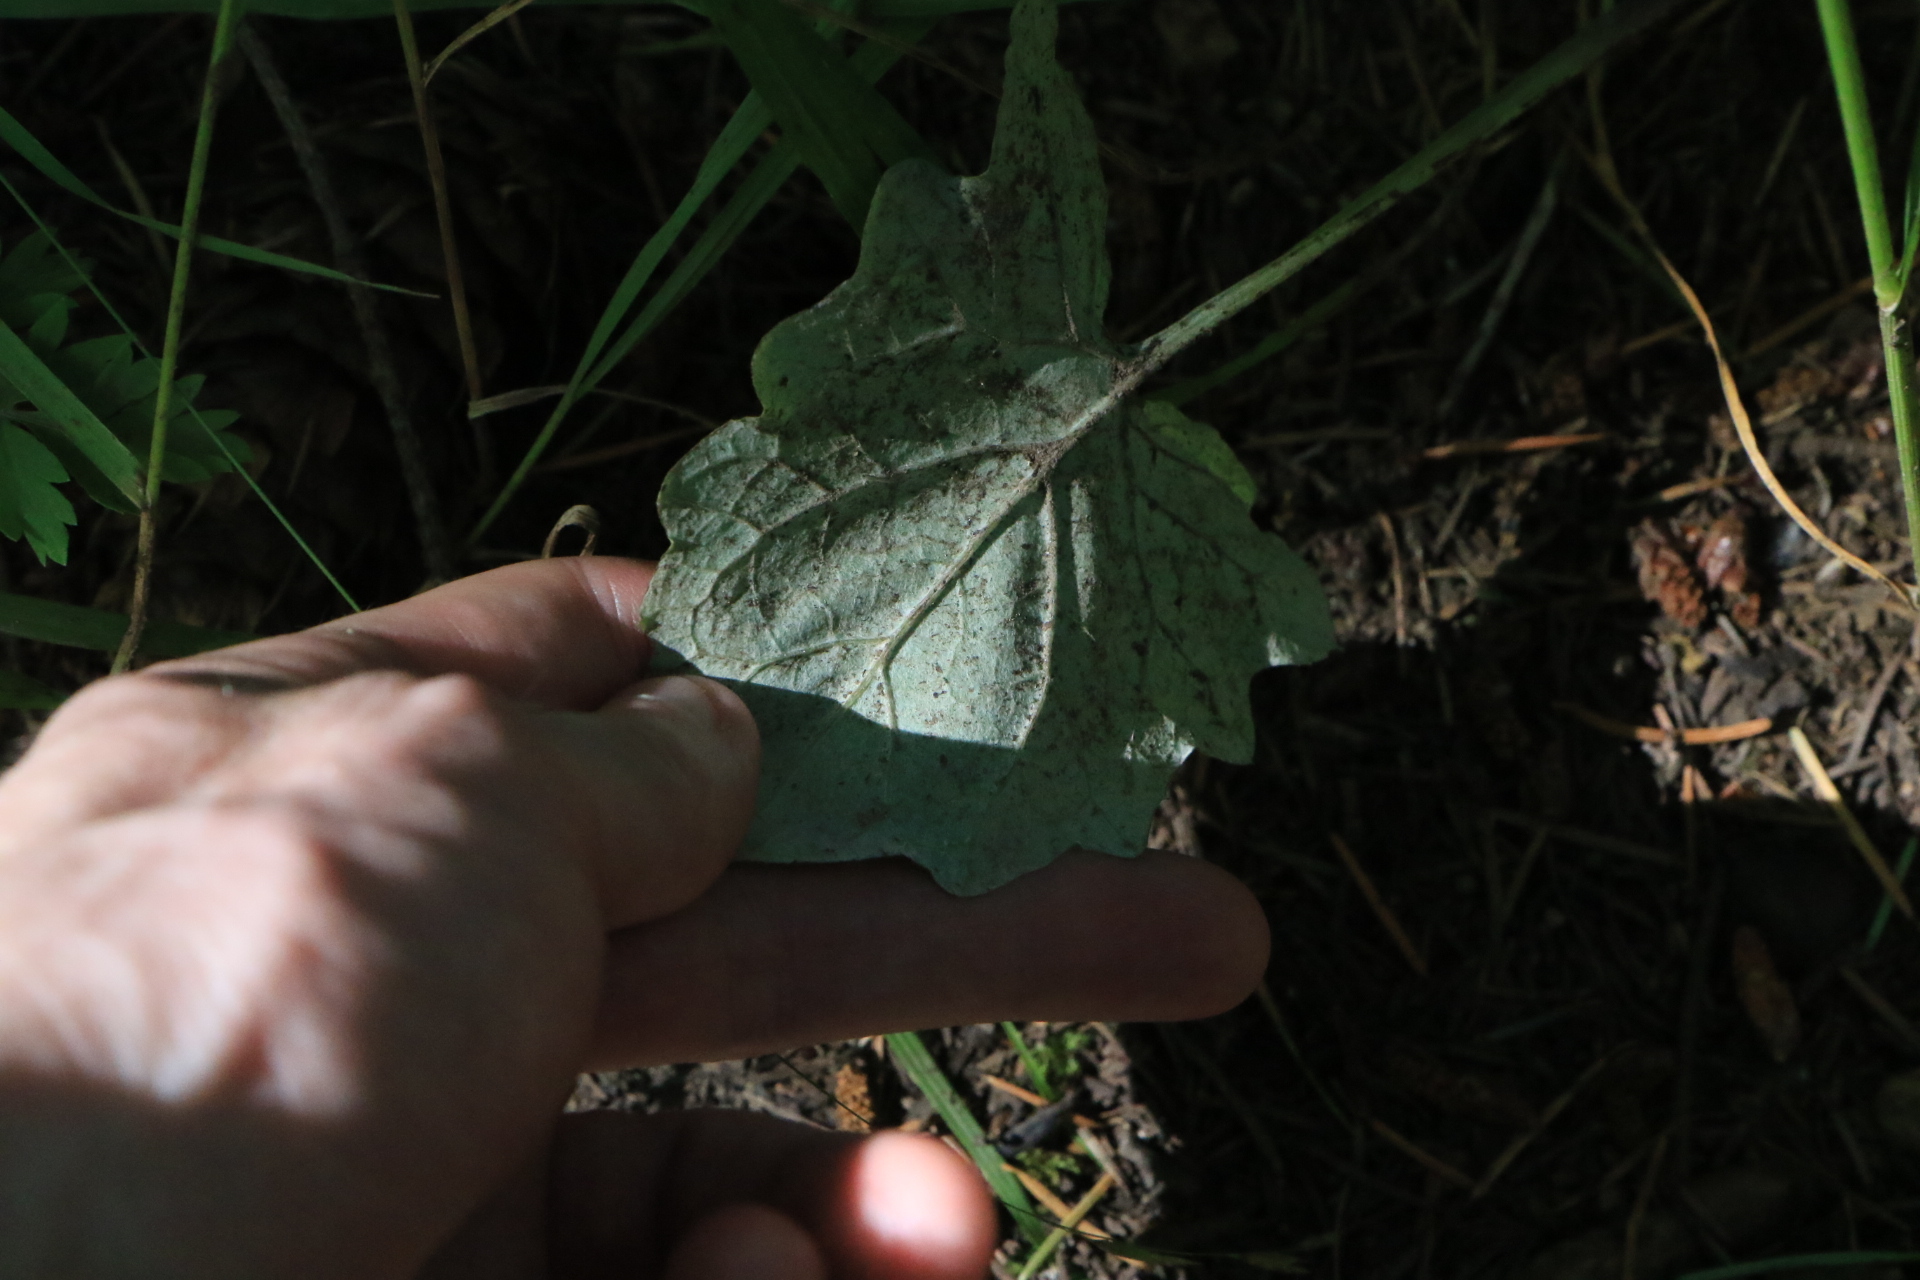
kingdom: Plantae
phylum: Tracheophyta
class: Magnoliopsida
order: Asterales
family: Asteraceae
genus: Adenocaulon
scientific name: Adenocaulon bicolor
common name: Trailplant
